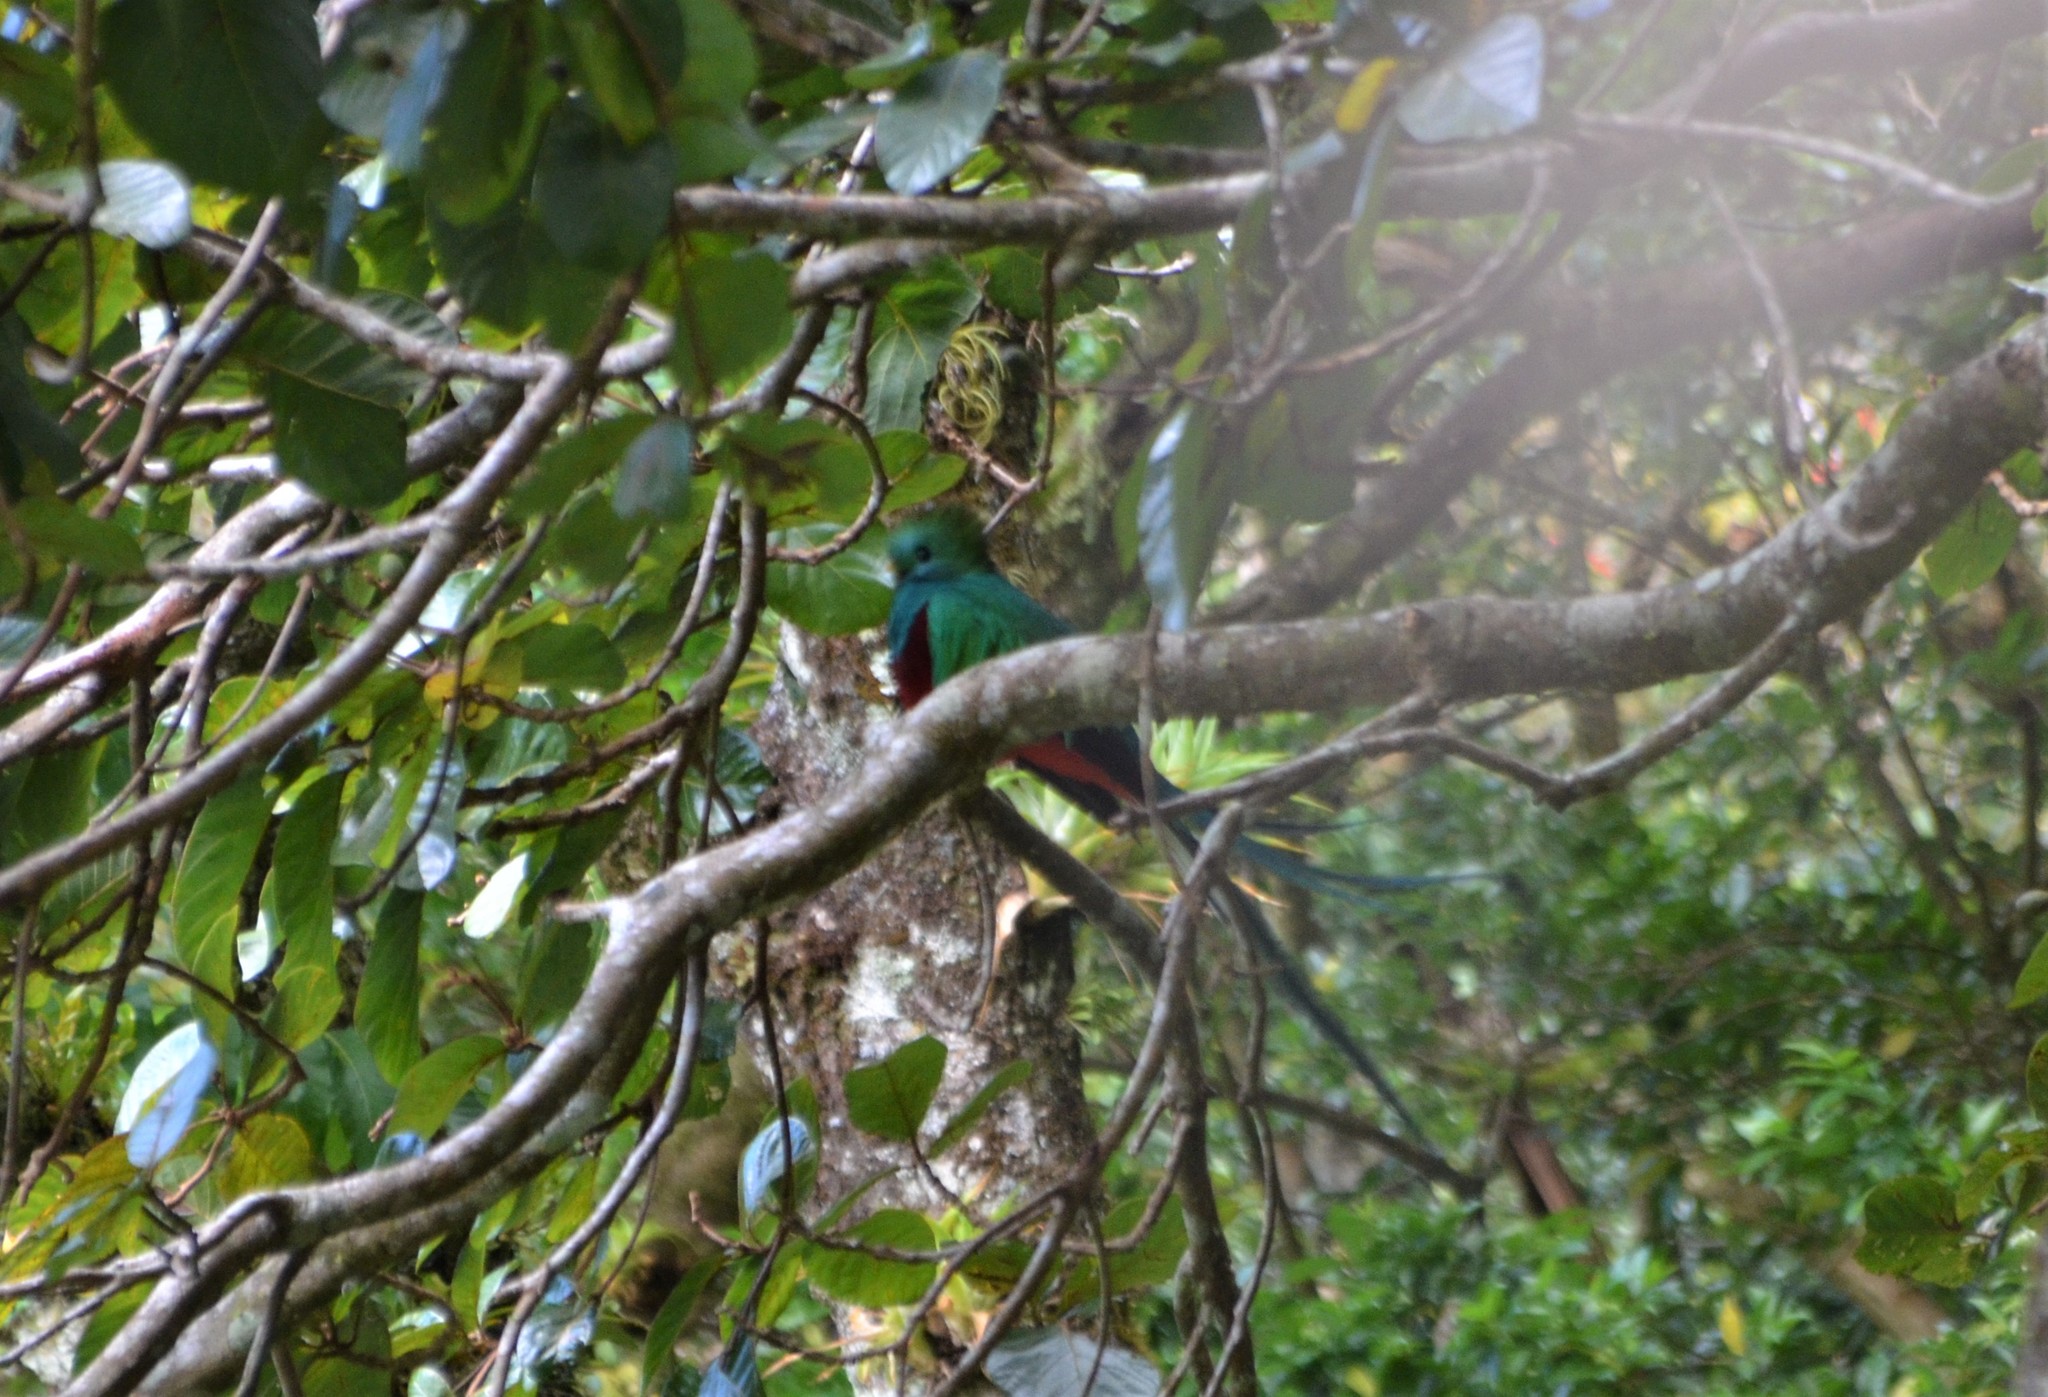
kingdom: Animalia
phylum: Chordata
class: Aves
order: Trogoniformes
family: Trogonidae
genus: Pharomachrus
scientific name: Pharomachrus mocinno
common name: Resplendent quetzal
